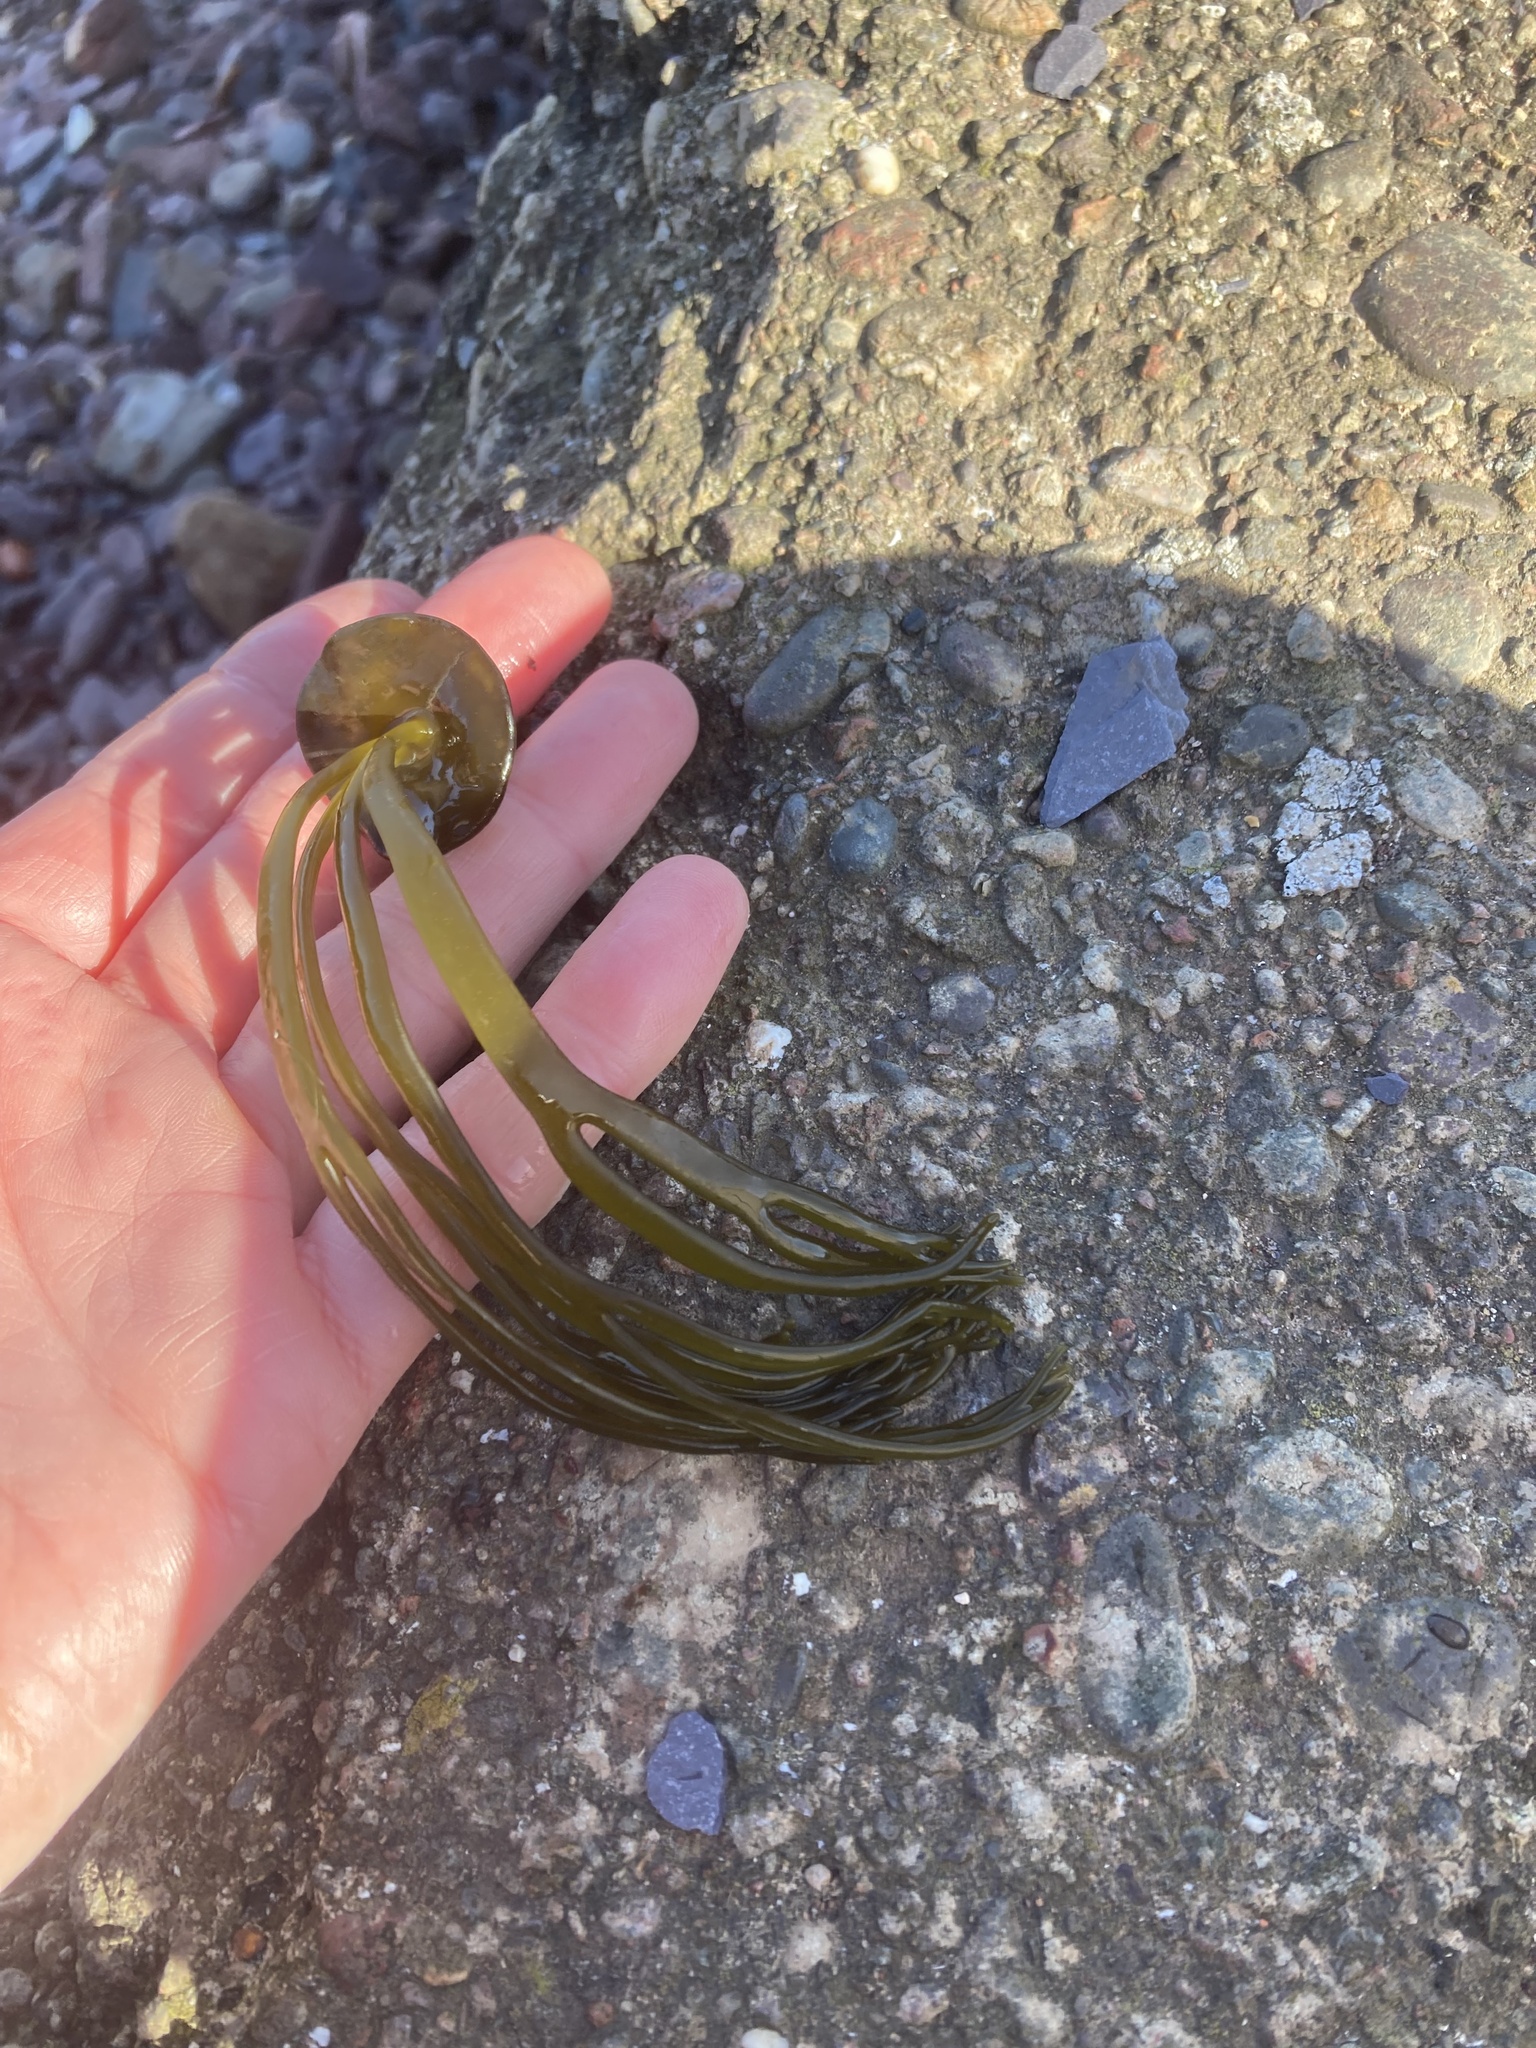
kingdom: Chromista
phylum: Ochrophyta
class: Phaeophyceae
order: Fucales
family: Himanthaliaceae
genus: Himanthalia
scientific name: Himanthalia elongata
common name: Sea-thong
